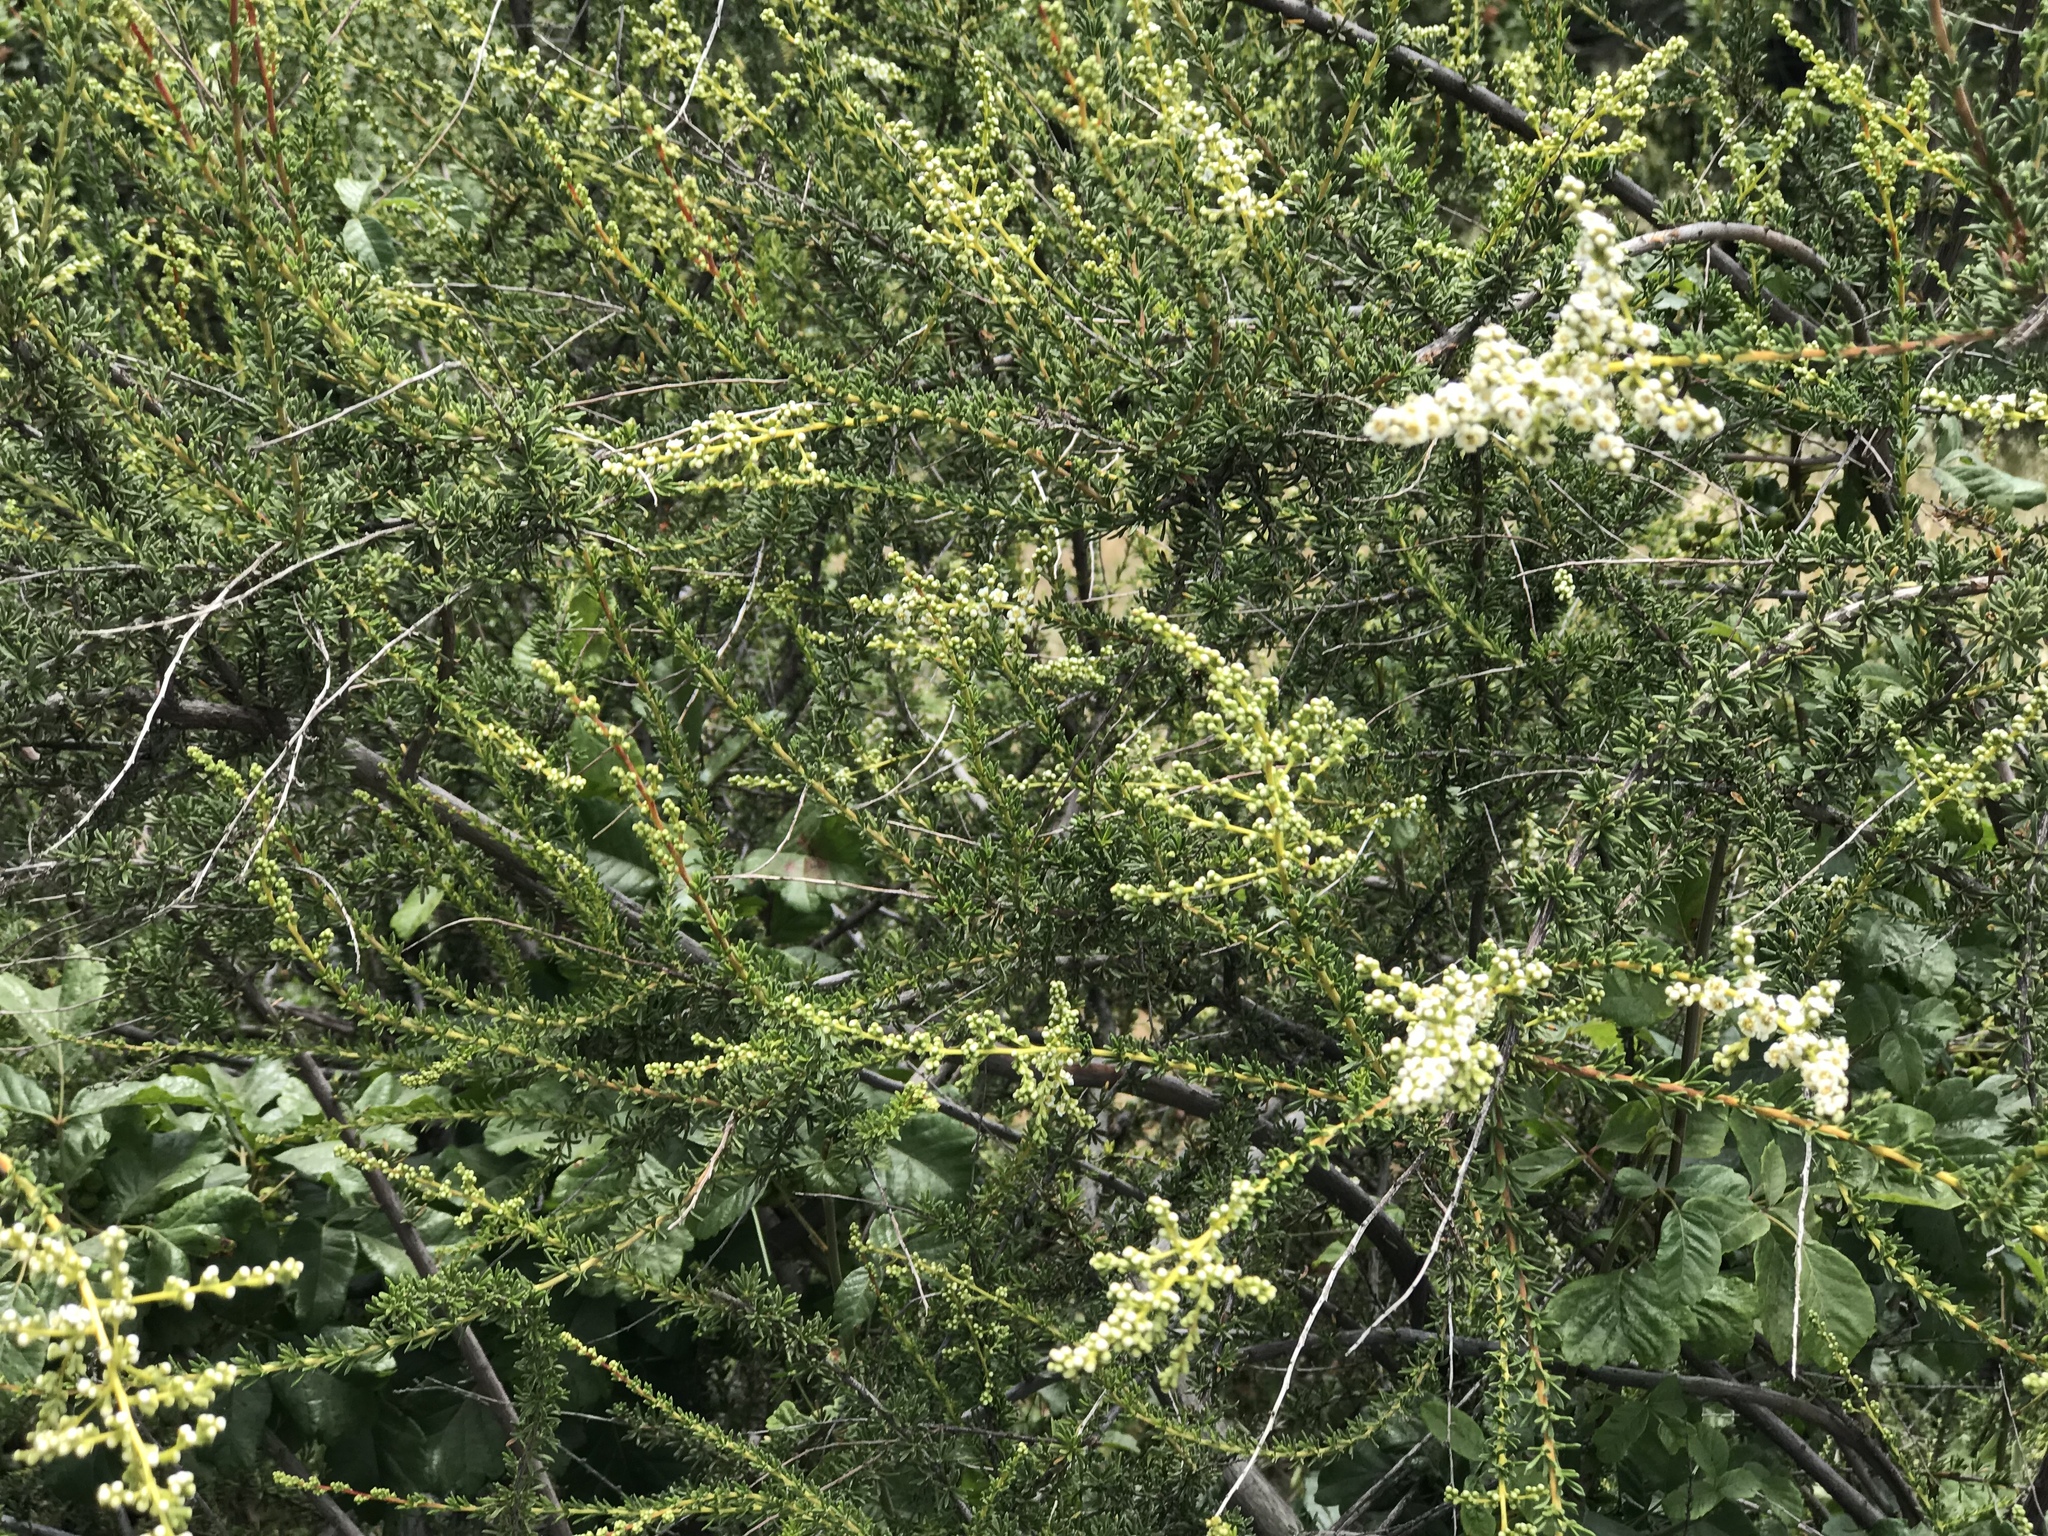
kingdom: Plantae
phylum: Tracheophyta
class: Magnoliopsida
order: Rosales
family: Rosaceae
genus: Adenostoma
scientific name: Adenostoma fasciculatum
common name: Chamise
